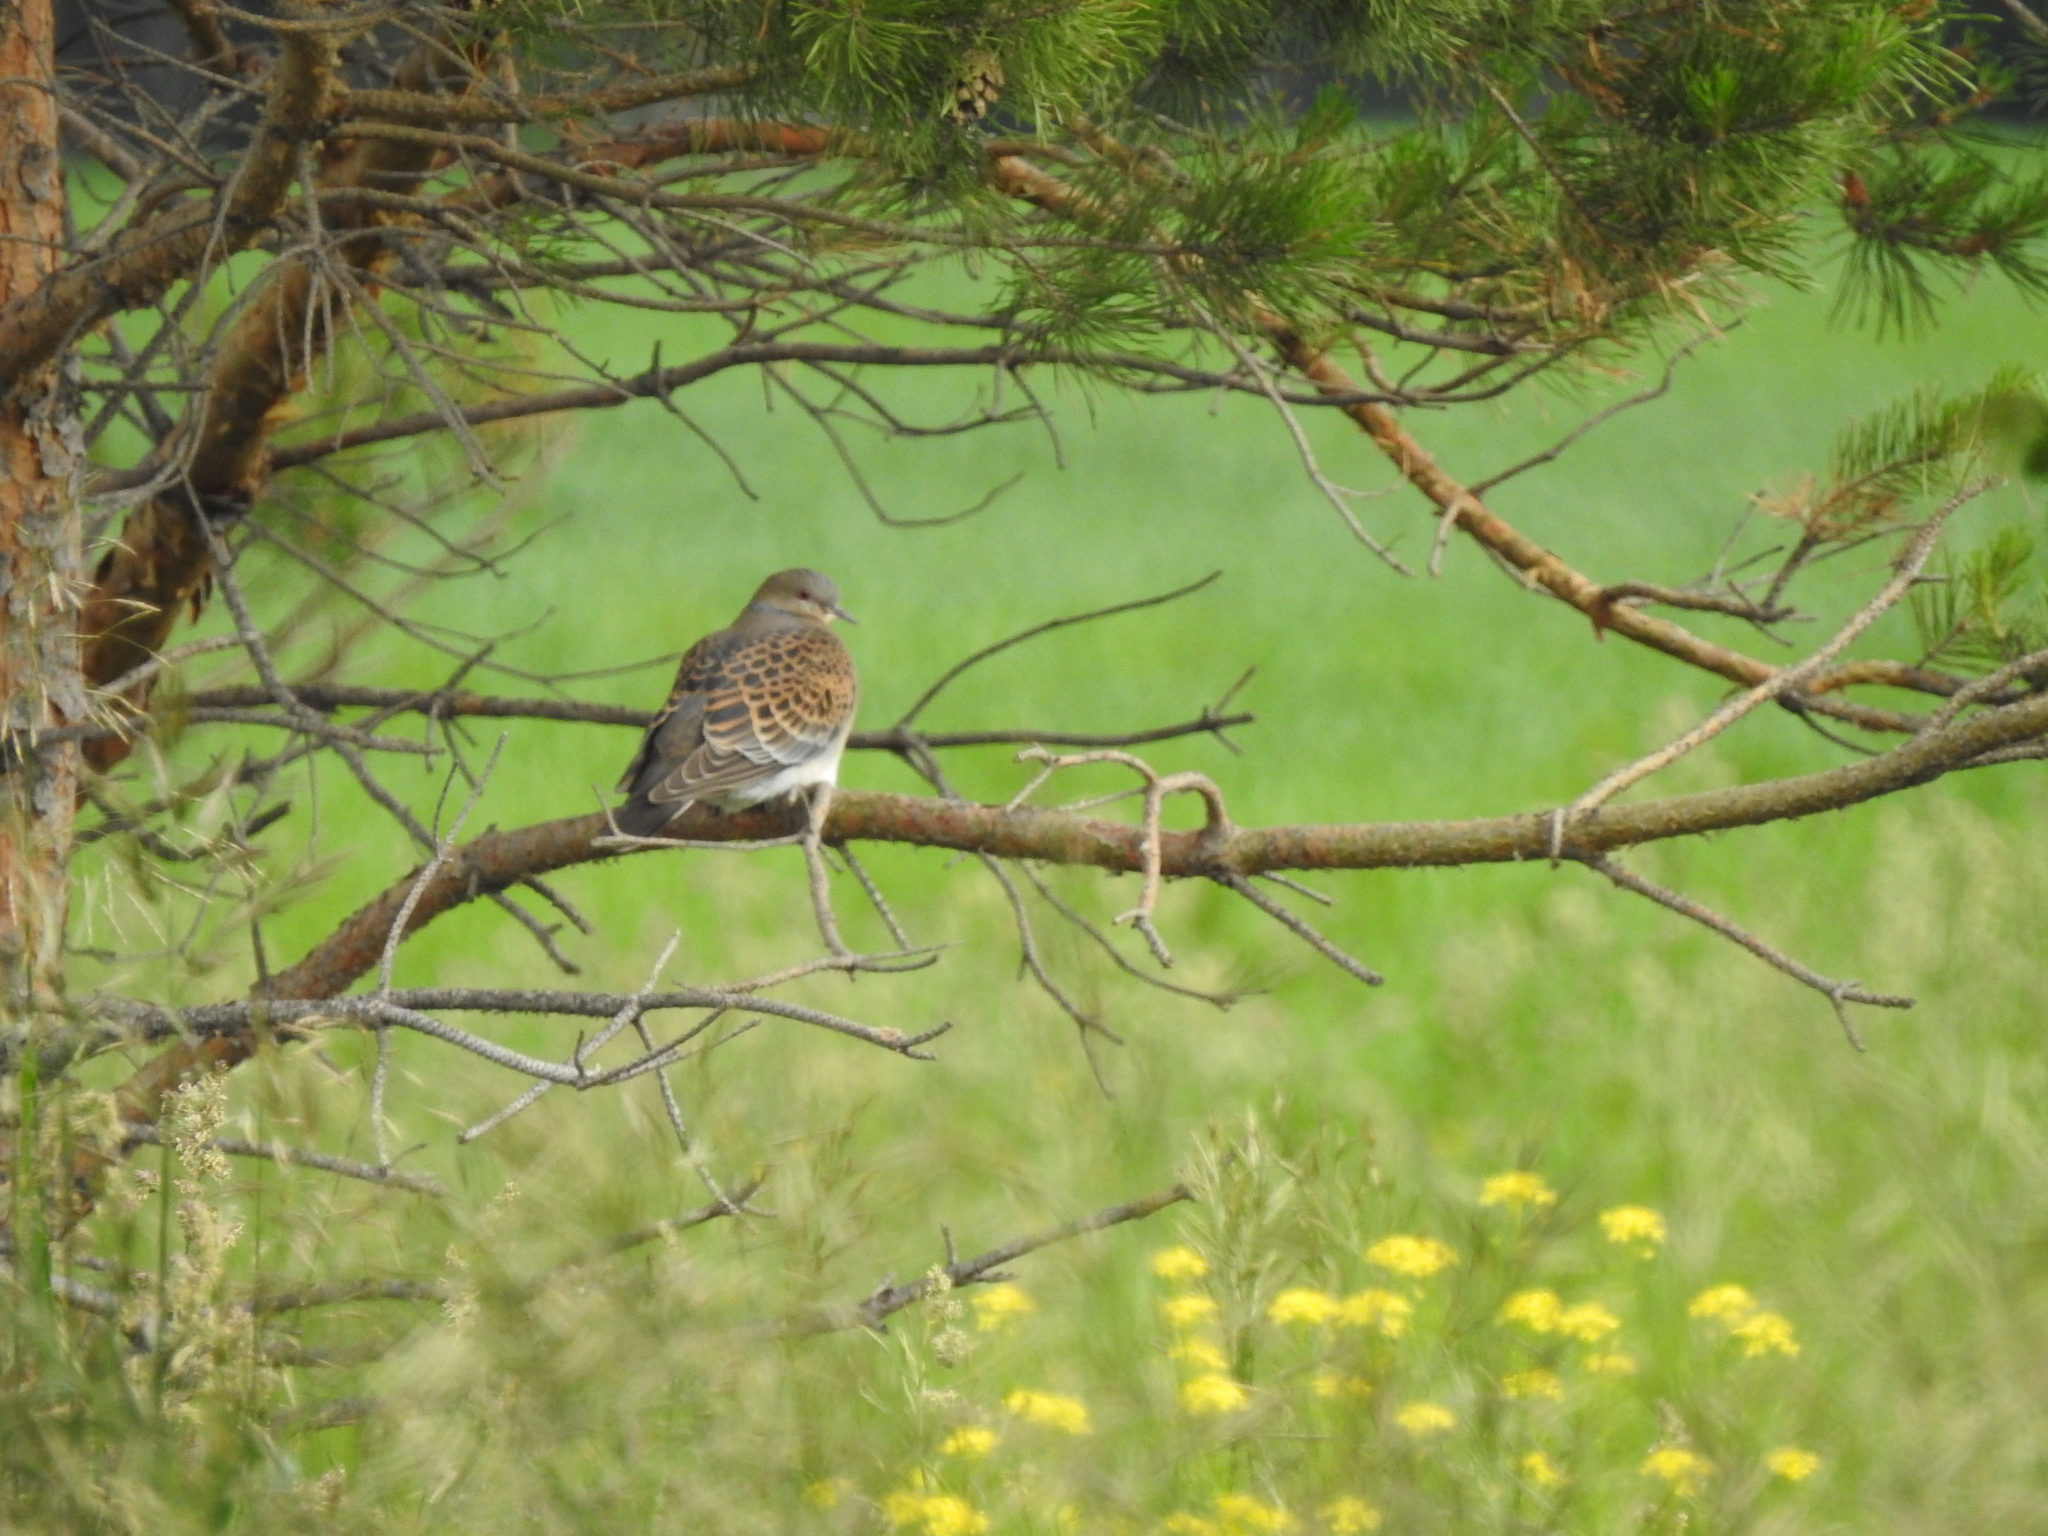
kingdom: Animalia
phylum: Chordata
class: Aves
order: Columbiformes
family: Columbidae
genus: Streptopelia
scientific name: Streptopelia orientalis
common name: Oriental turtle dove
